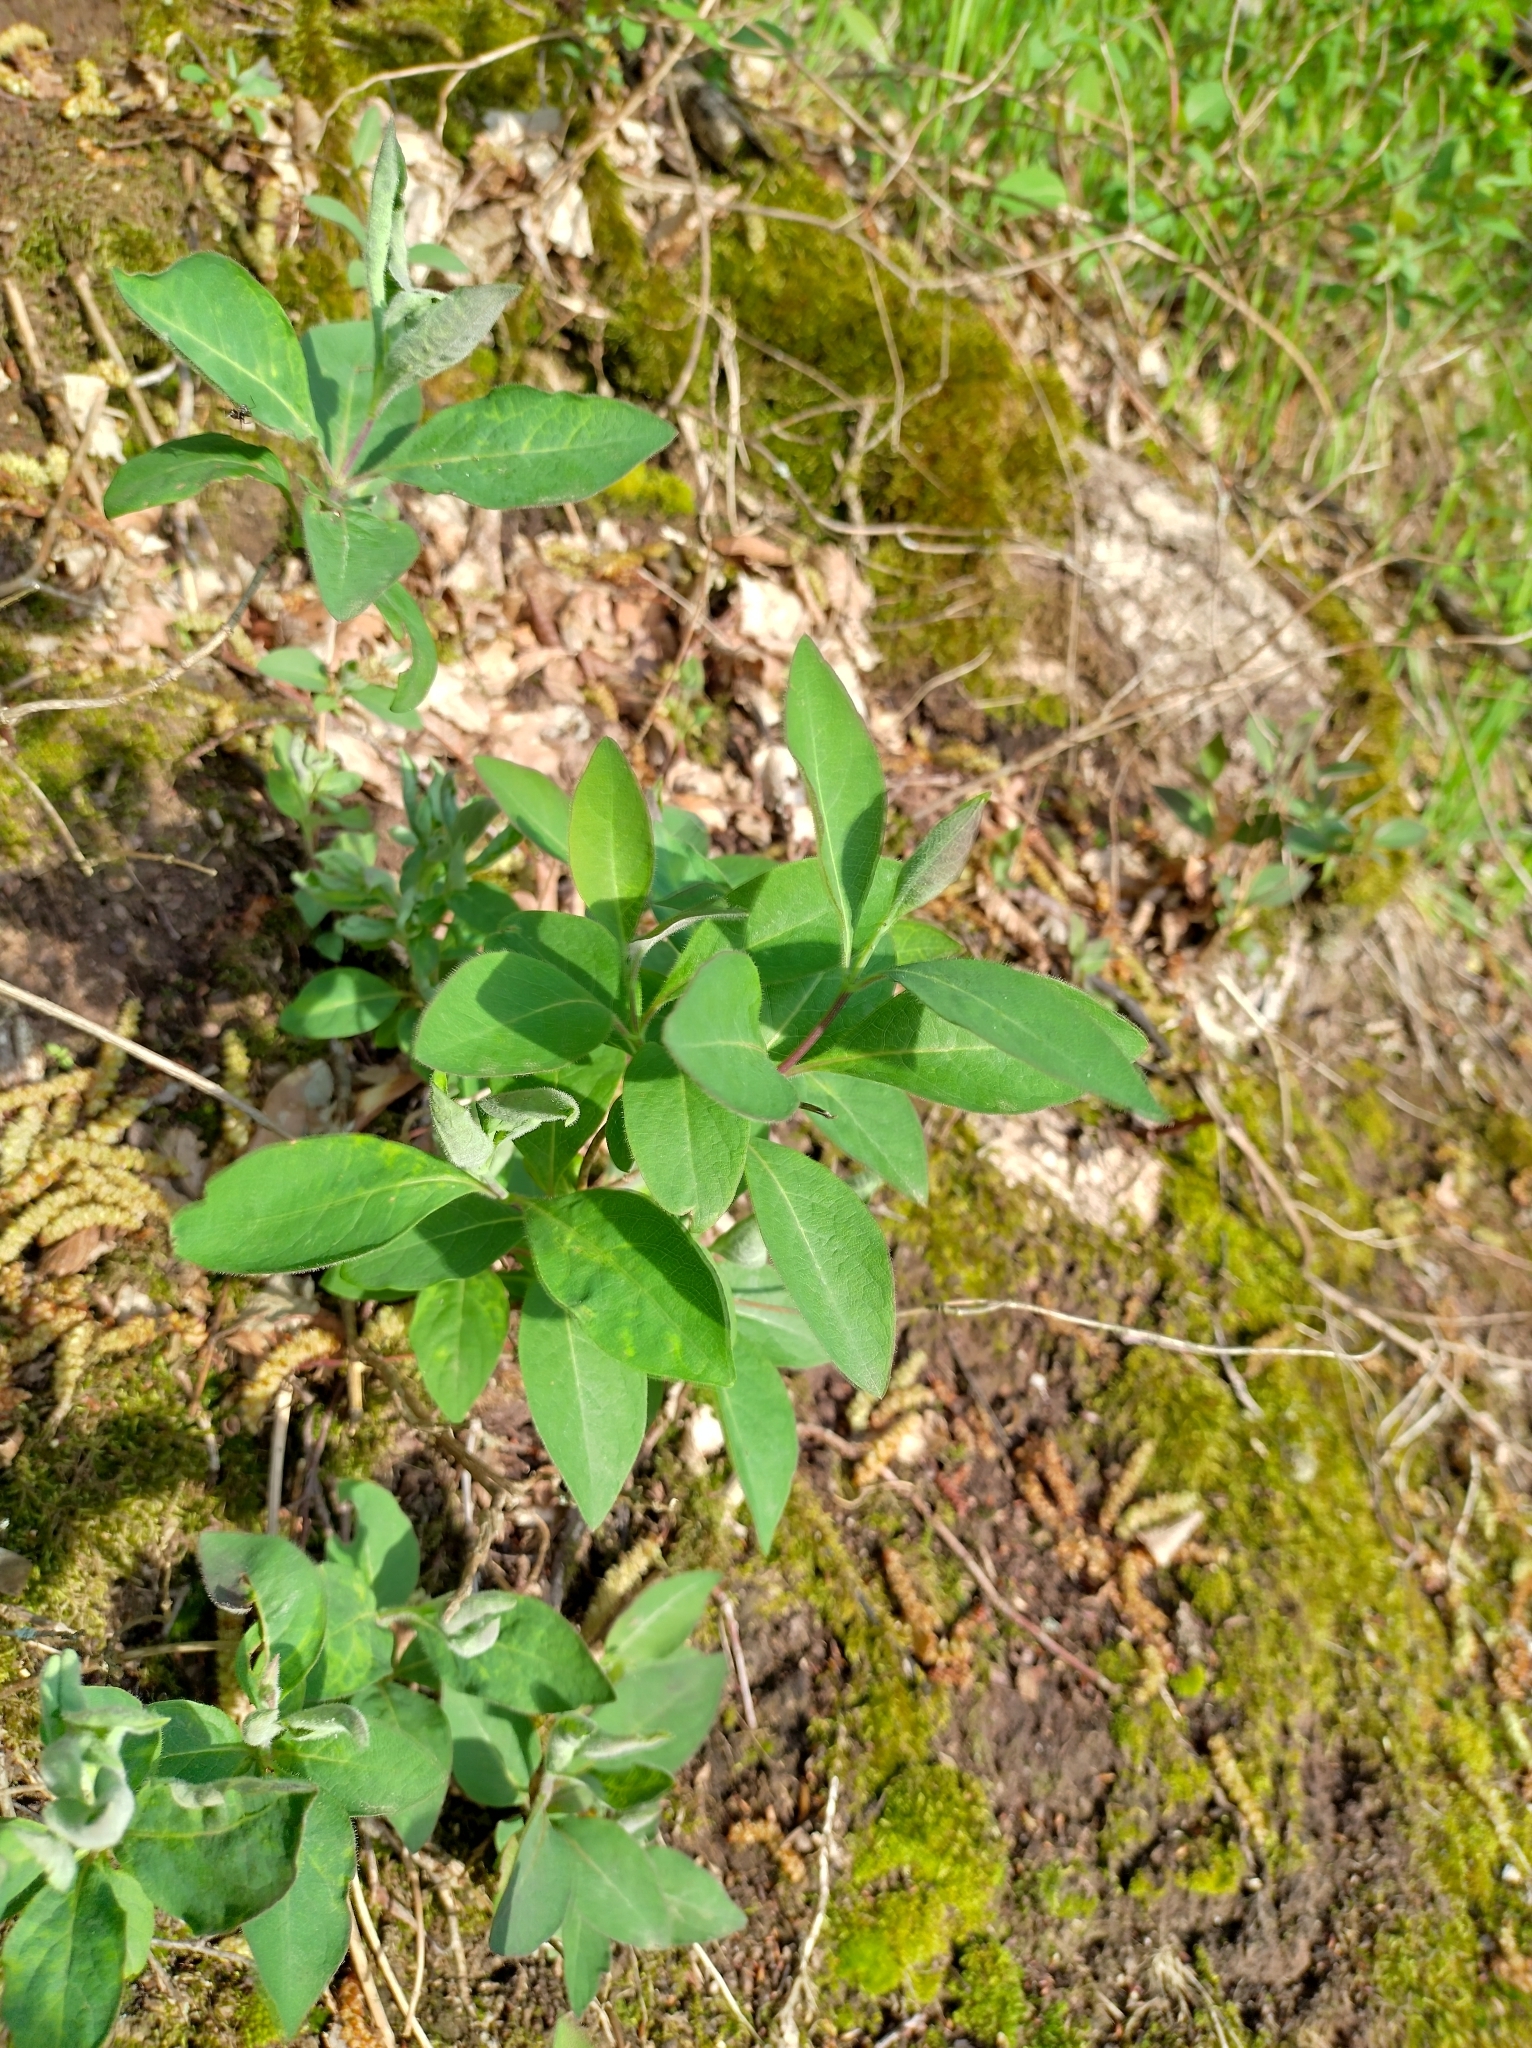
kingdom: Plantae
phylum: Tracheophyta
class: Magnoliopsida
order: Dipsacales
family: Caprifoliaceae
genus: Lonicera
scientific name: Lonicera periclymenum
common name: European honeysuckle
